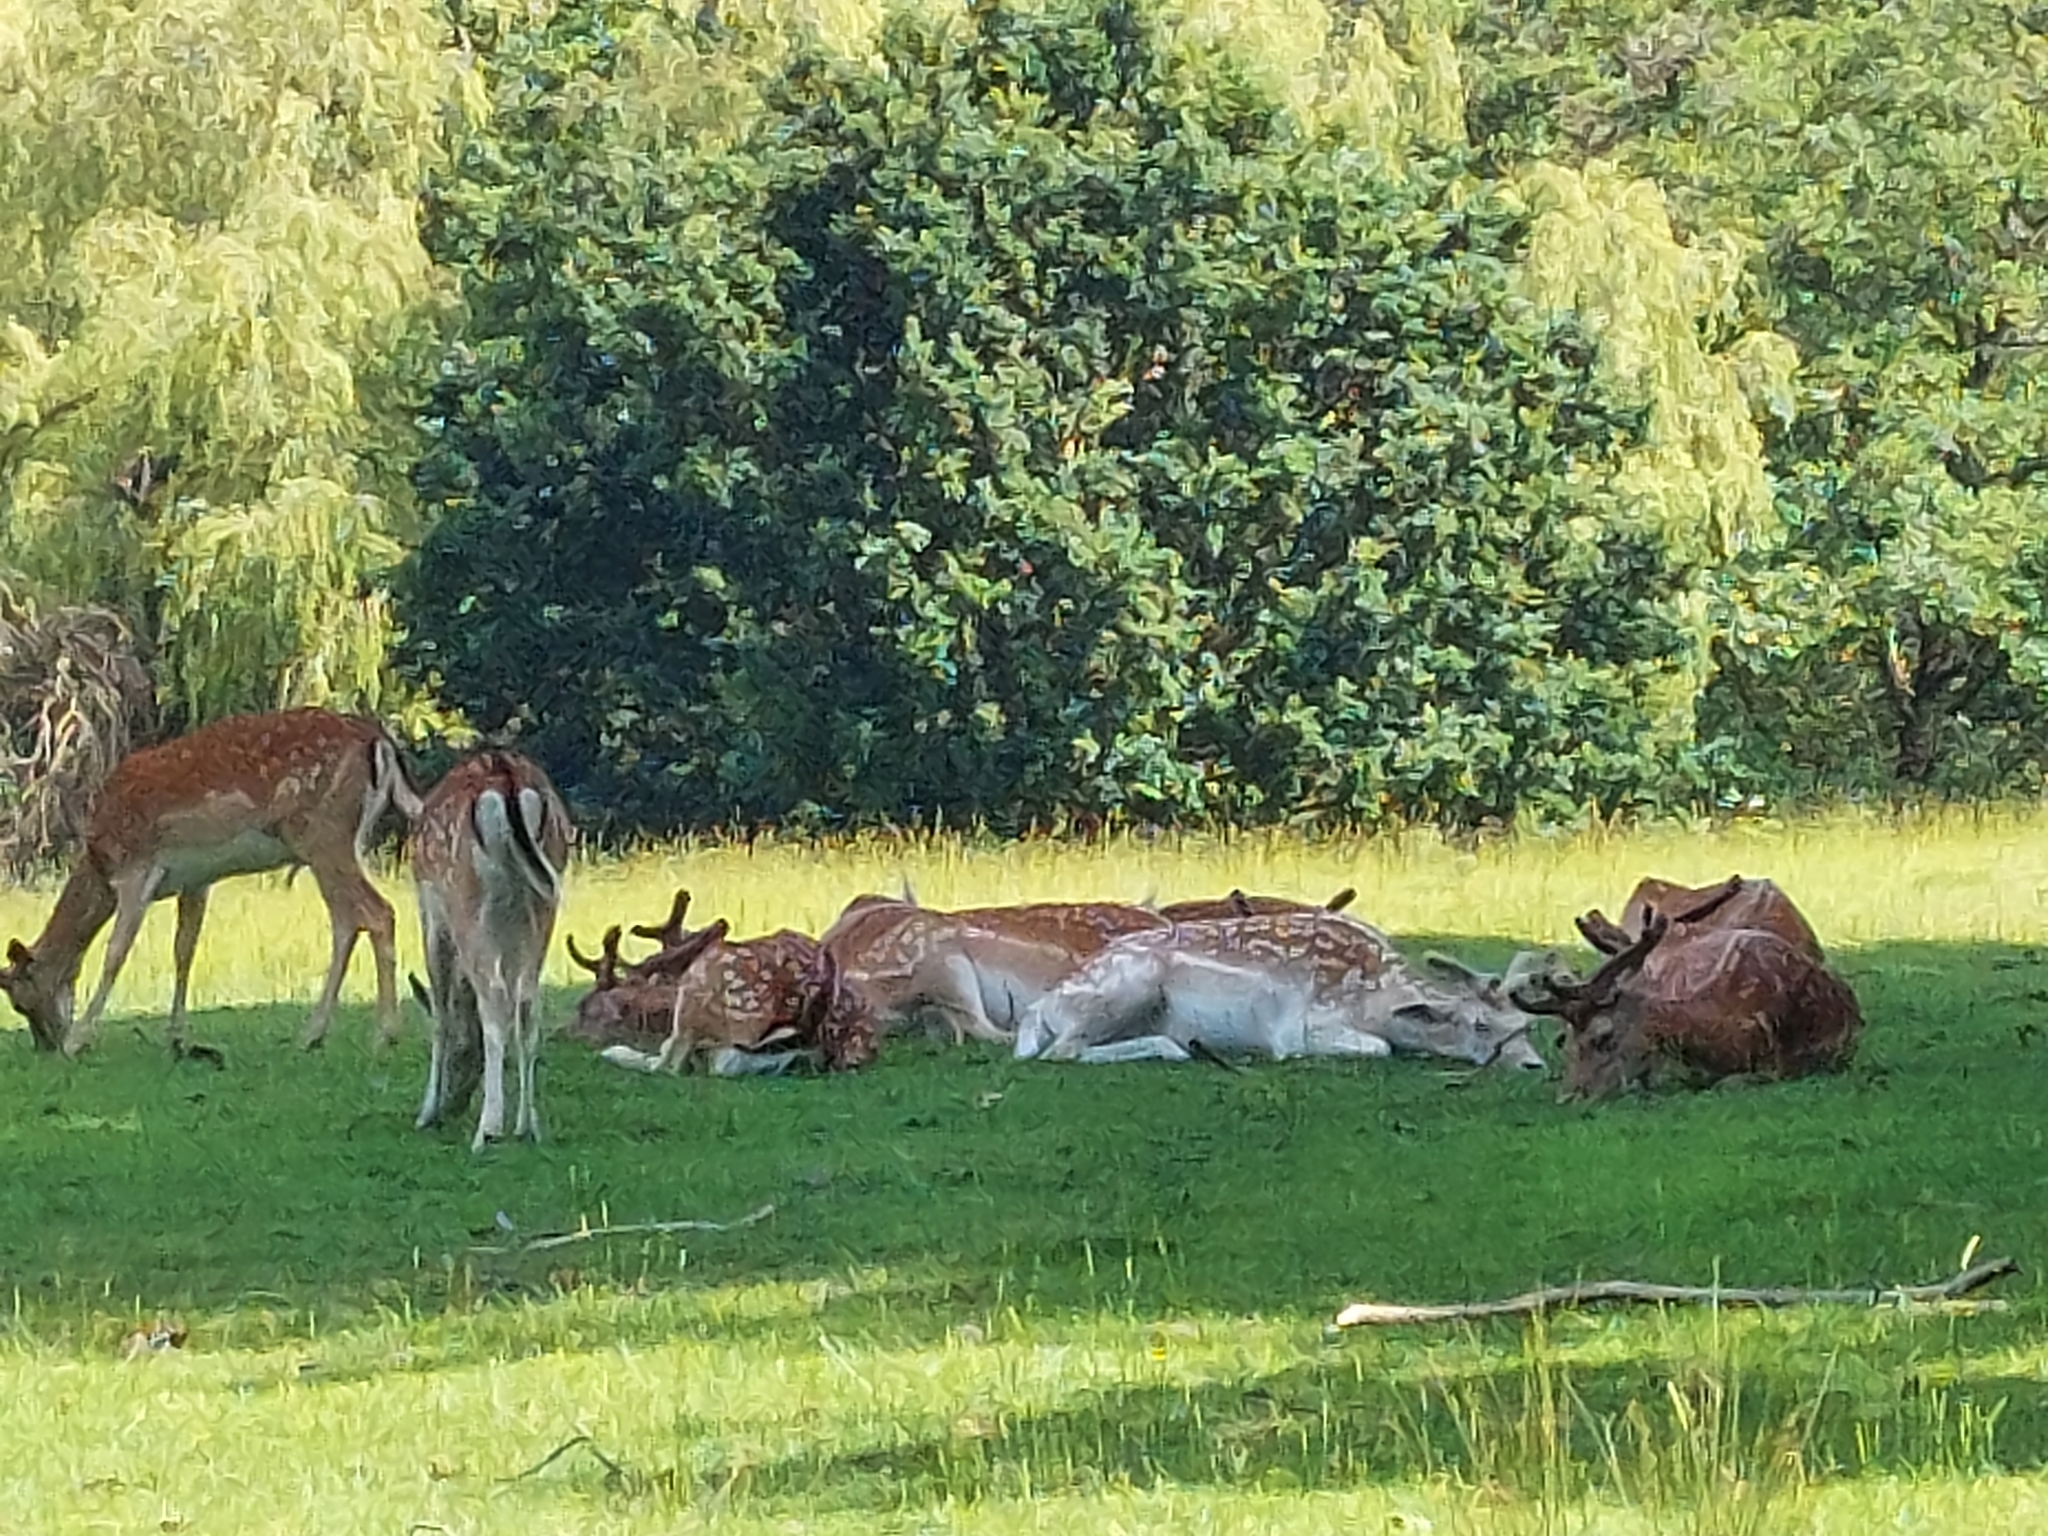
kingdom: Animalia
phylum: Chordata
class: Mammalia
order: Artiodactyla
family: Cervidae
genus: Dama
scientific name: Dama dama
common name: Fallow deer
